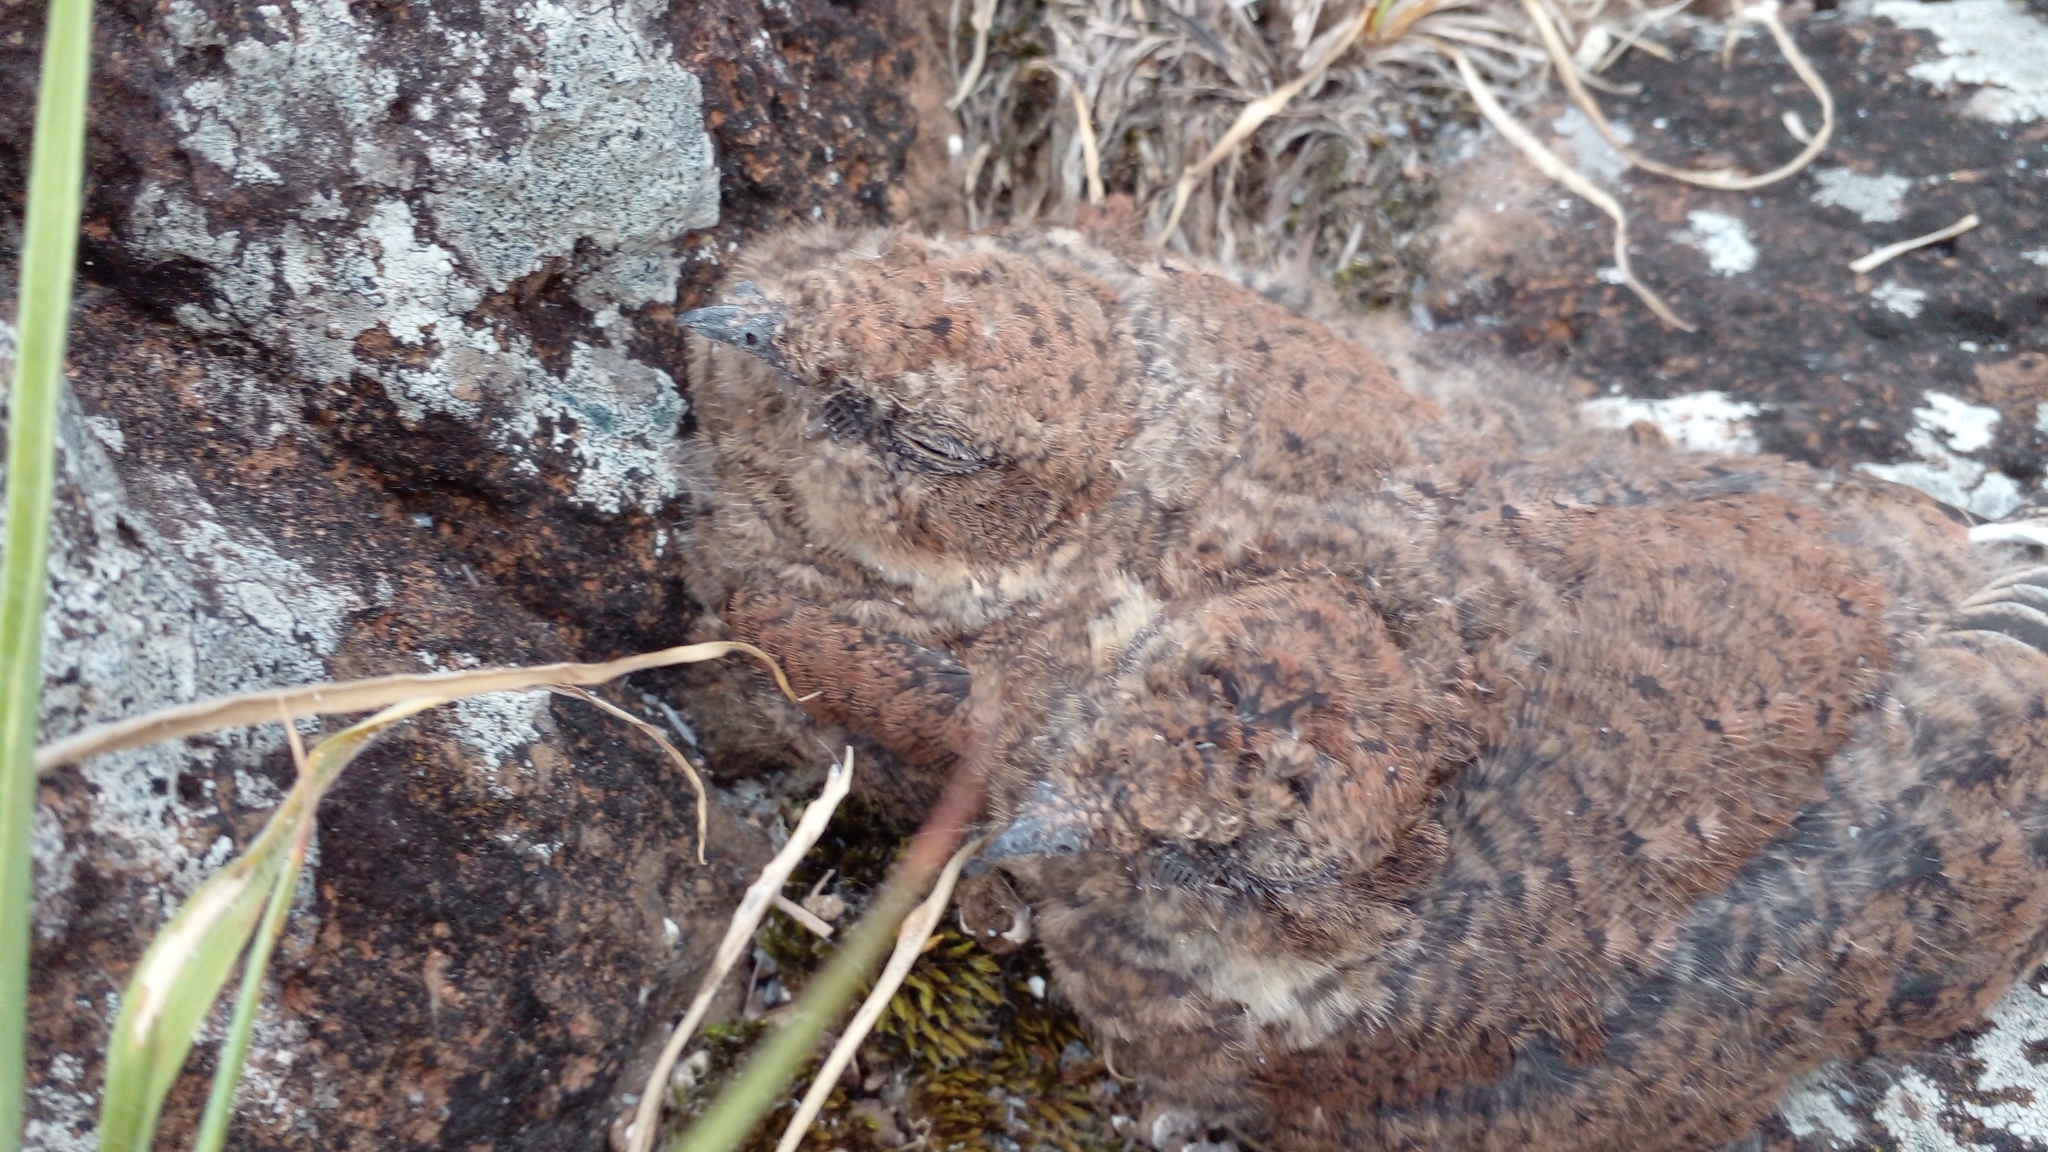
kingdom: Animalia
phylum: Chordata
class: Aves
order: Caprimulgiformes
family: Caprimulgidae
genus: Systellura
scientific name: Systellura longirostris
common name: Band-winged nightjar
